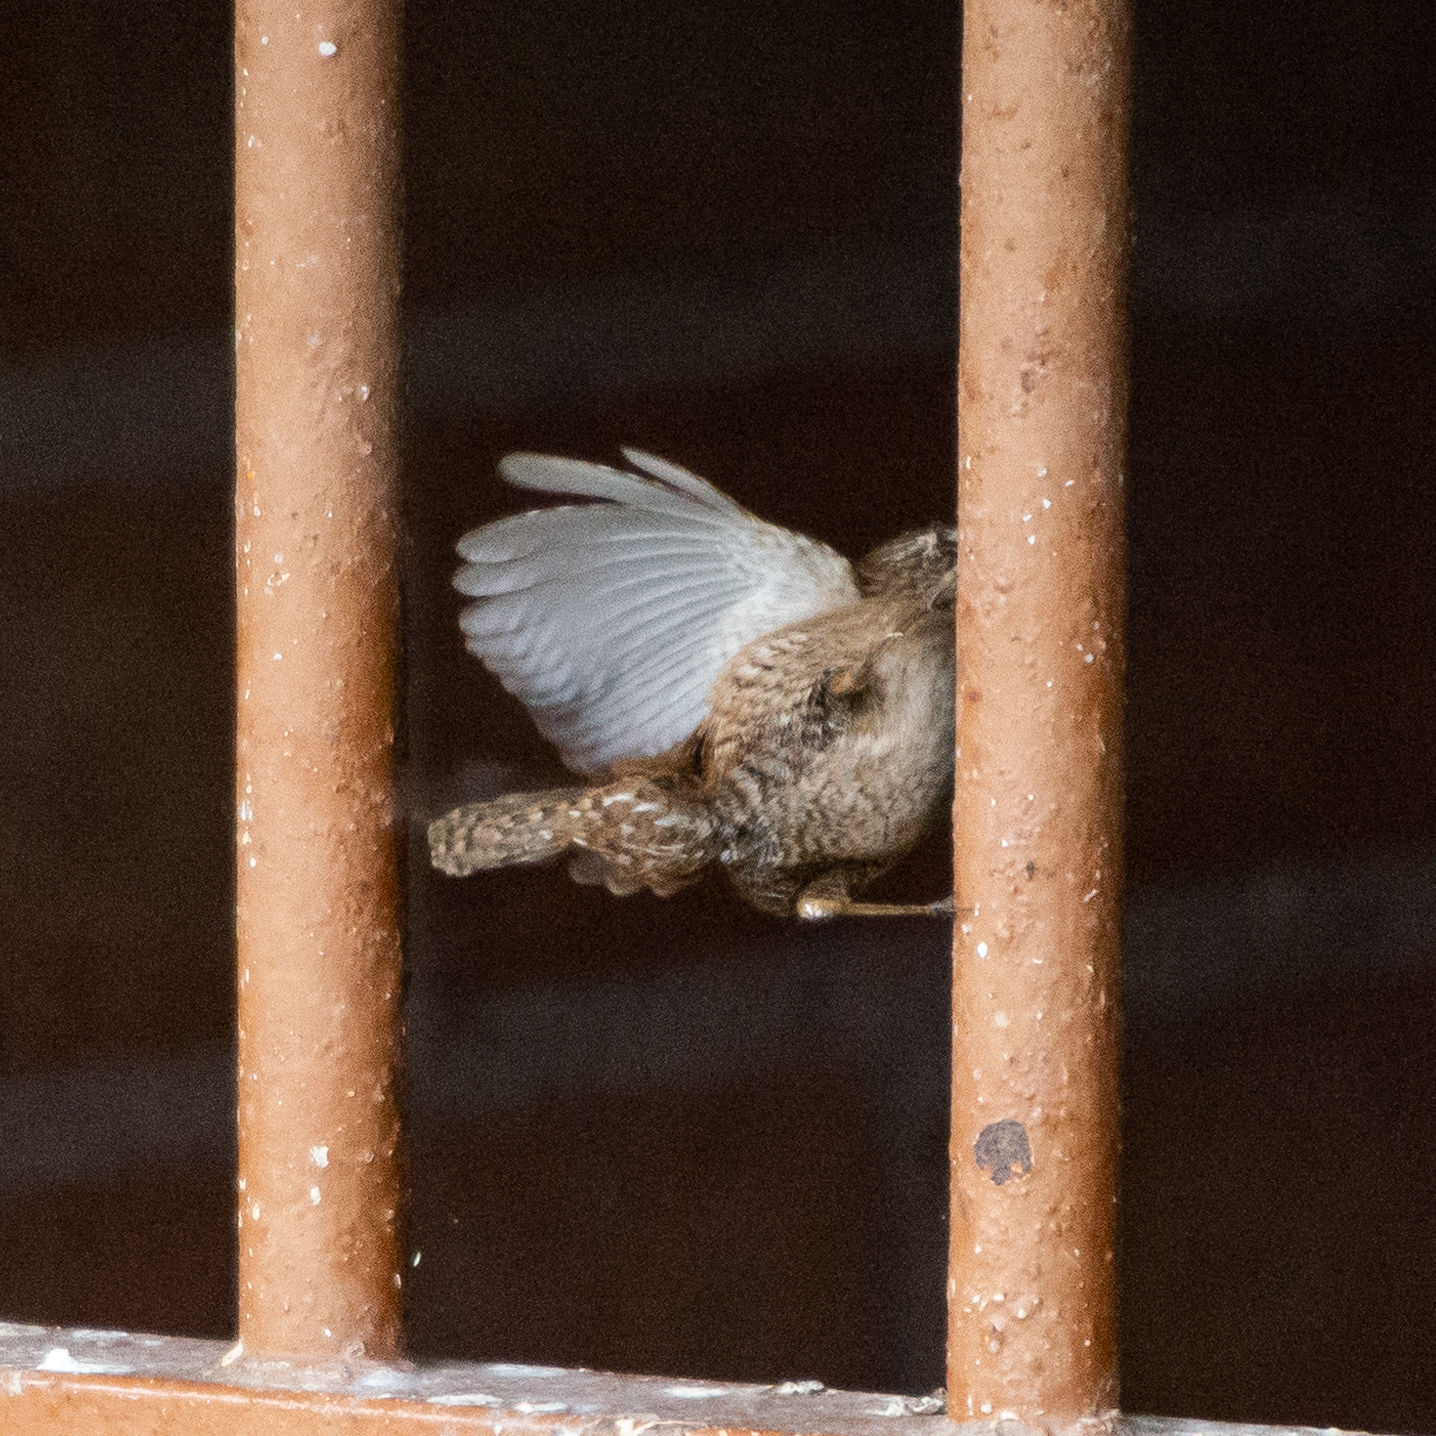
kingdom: Animalia
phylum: Chordata
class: Aves
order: Passeriformes
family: Troglodytidae
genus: Troglodytes
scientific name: Troglodytes troglodytes
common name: Eurasian wren
